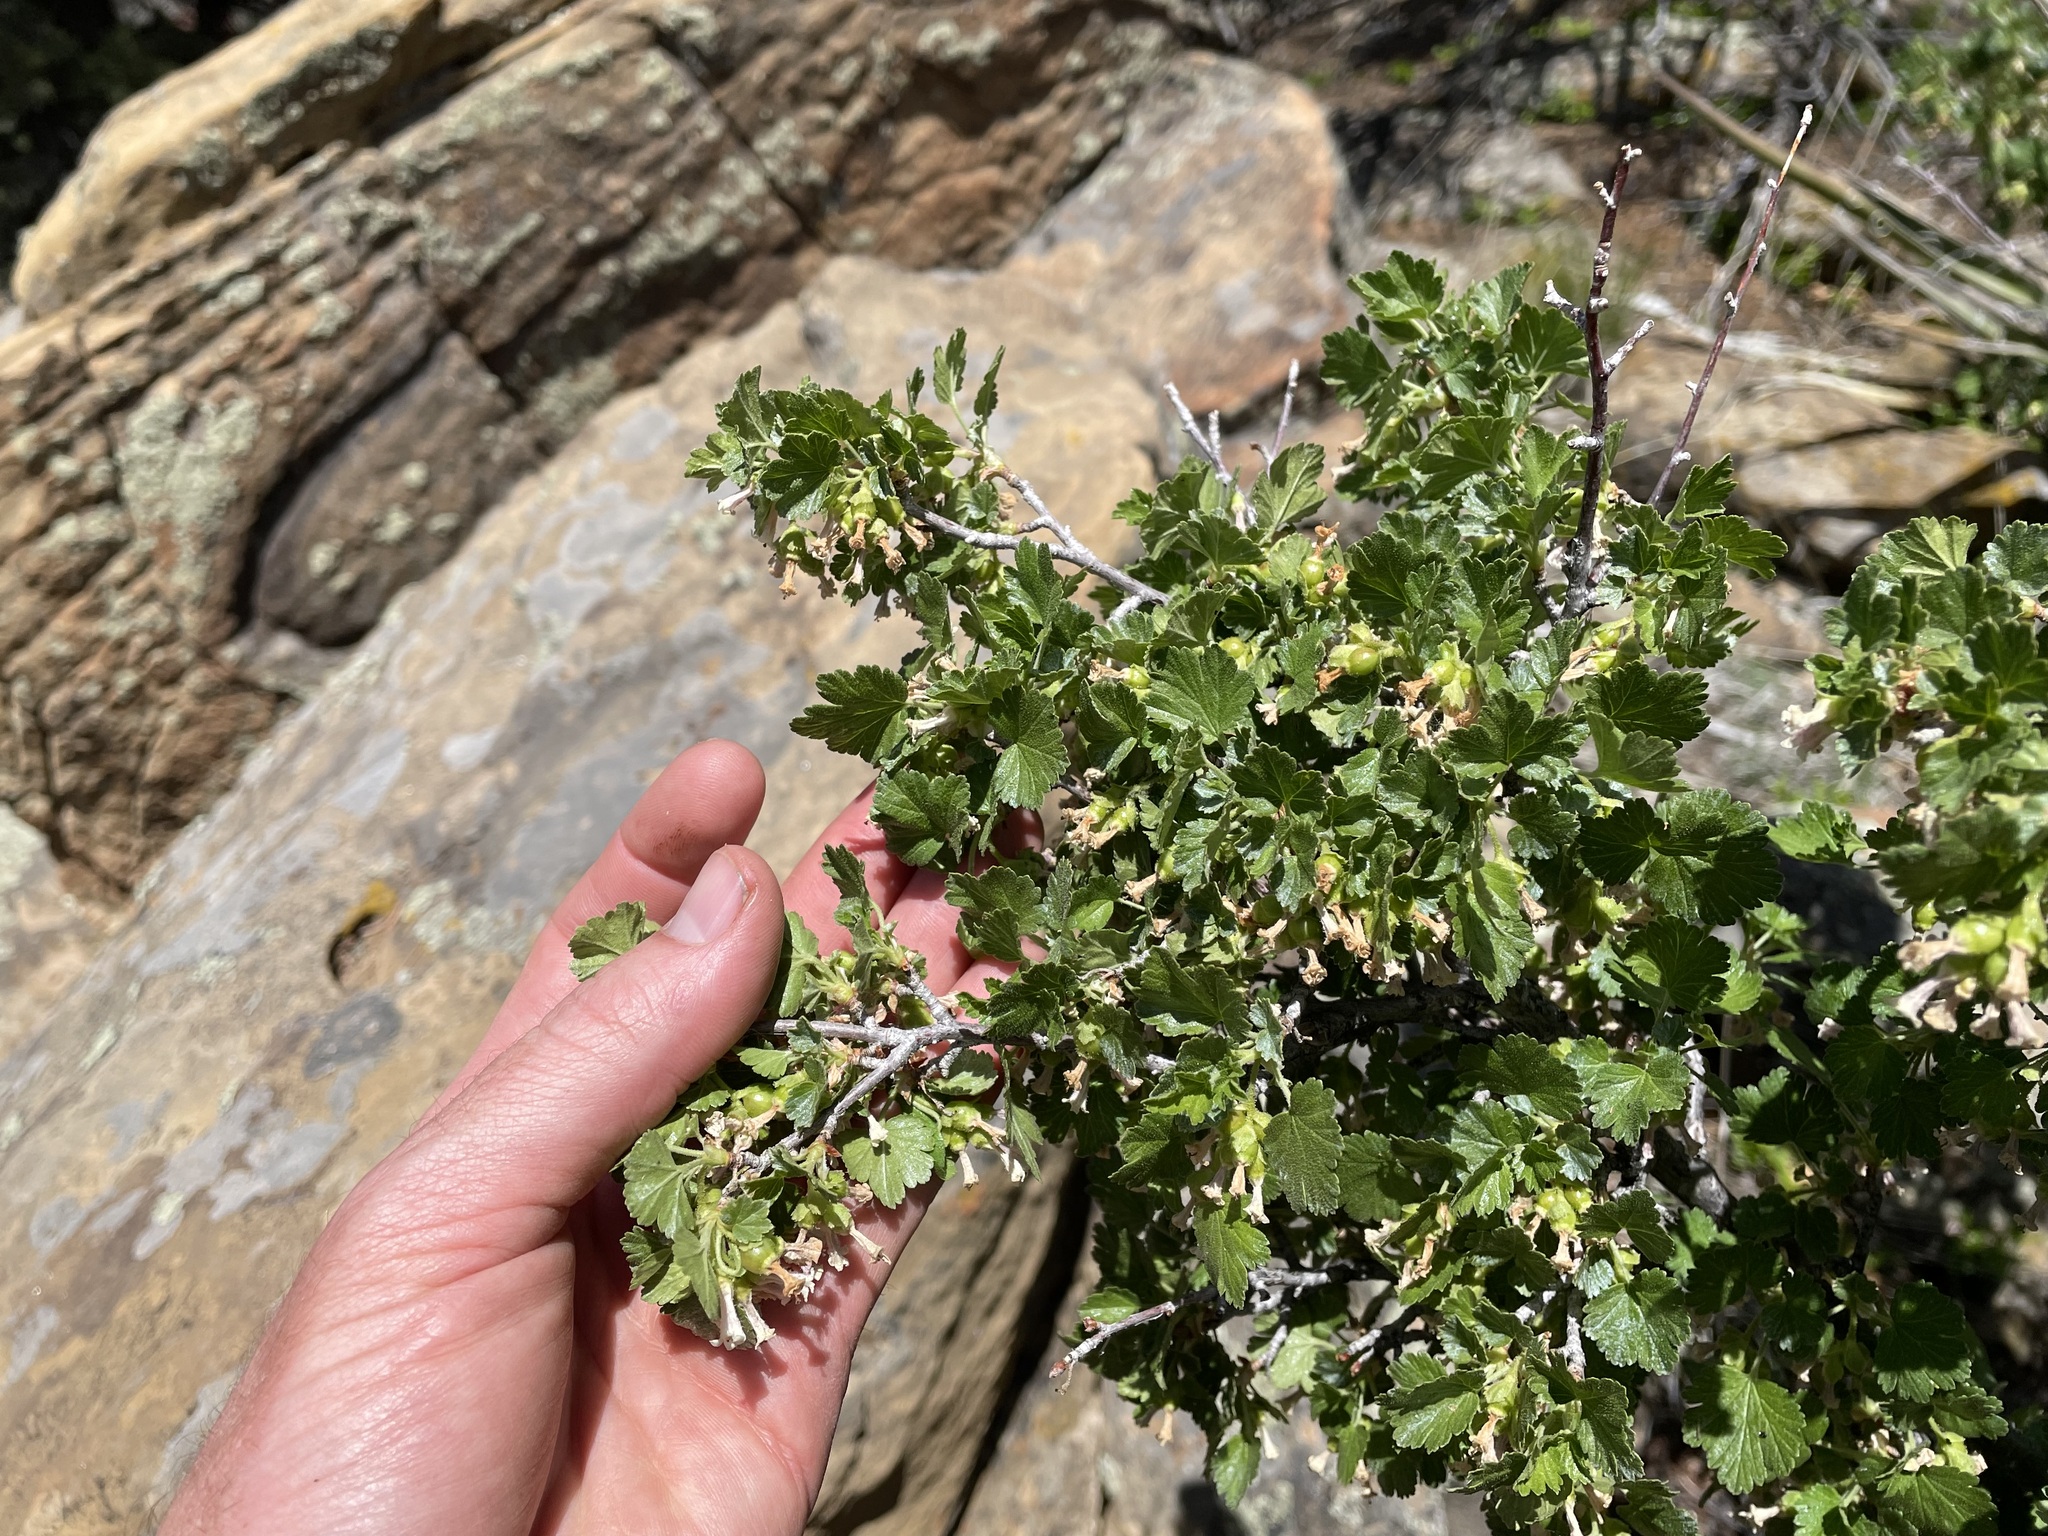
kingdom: Plantae
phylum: Tracheophyta
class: Magnoliopsida
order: Saxifragales
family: Grossulariaceae
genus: Ribes
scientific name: Ribes cereum
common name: Wax currant
